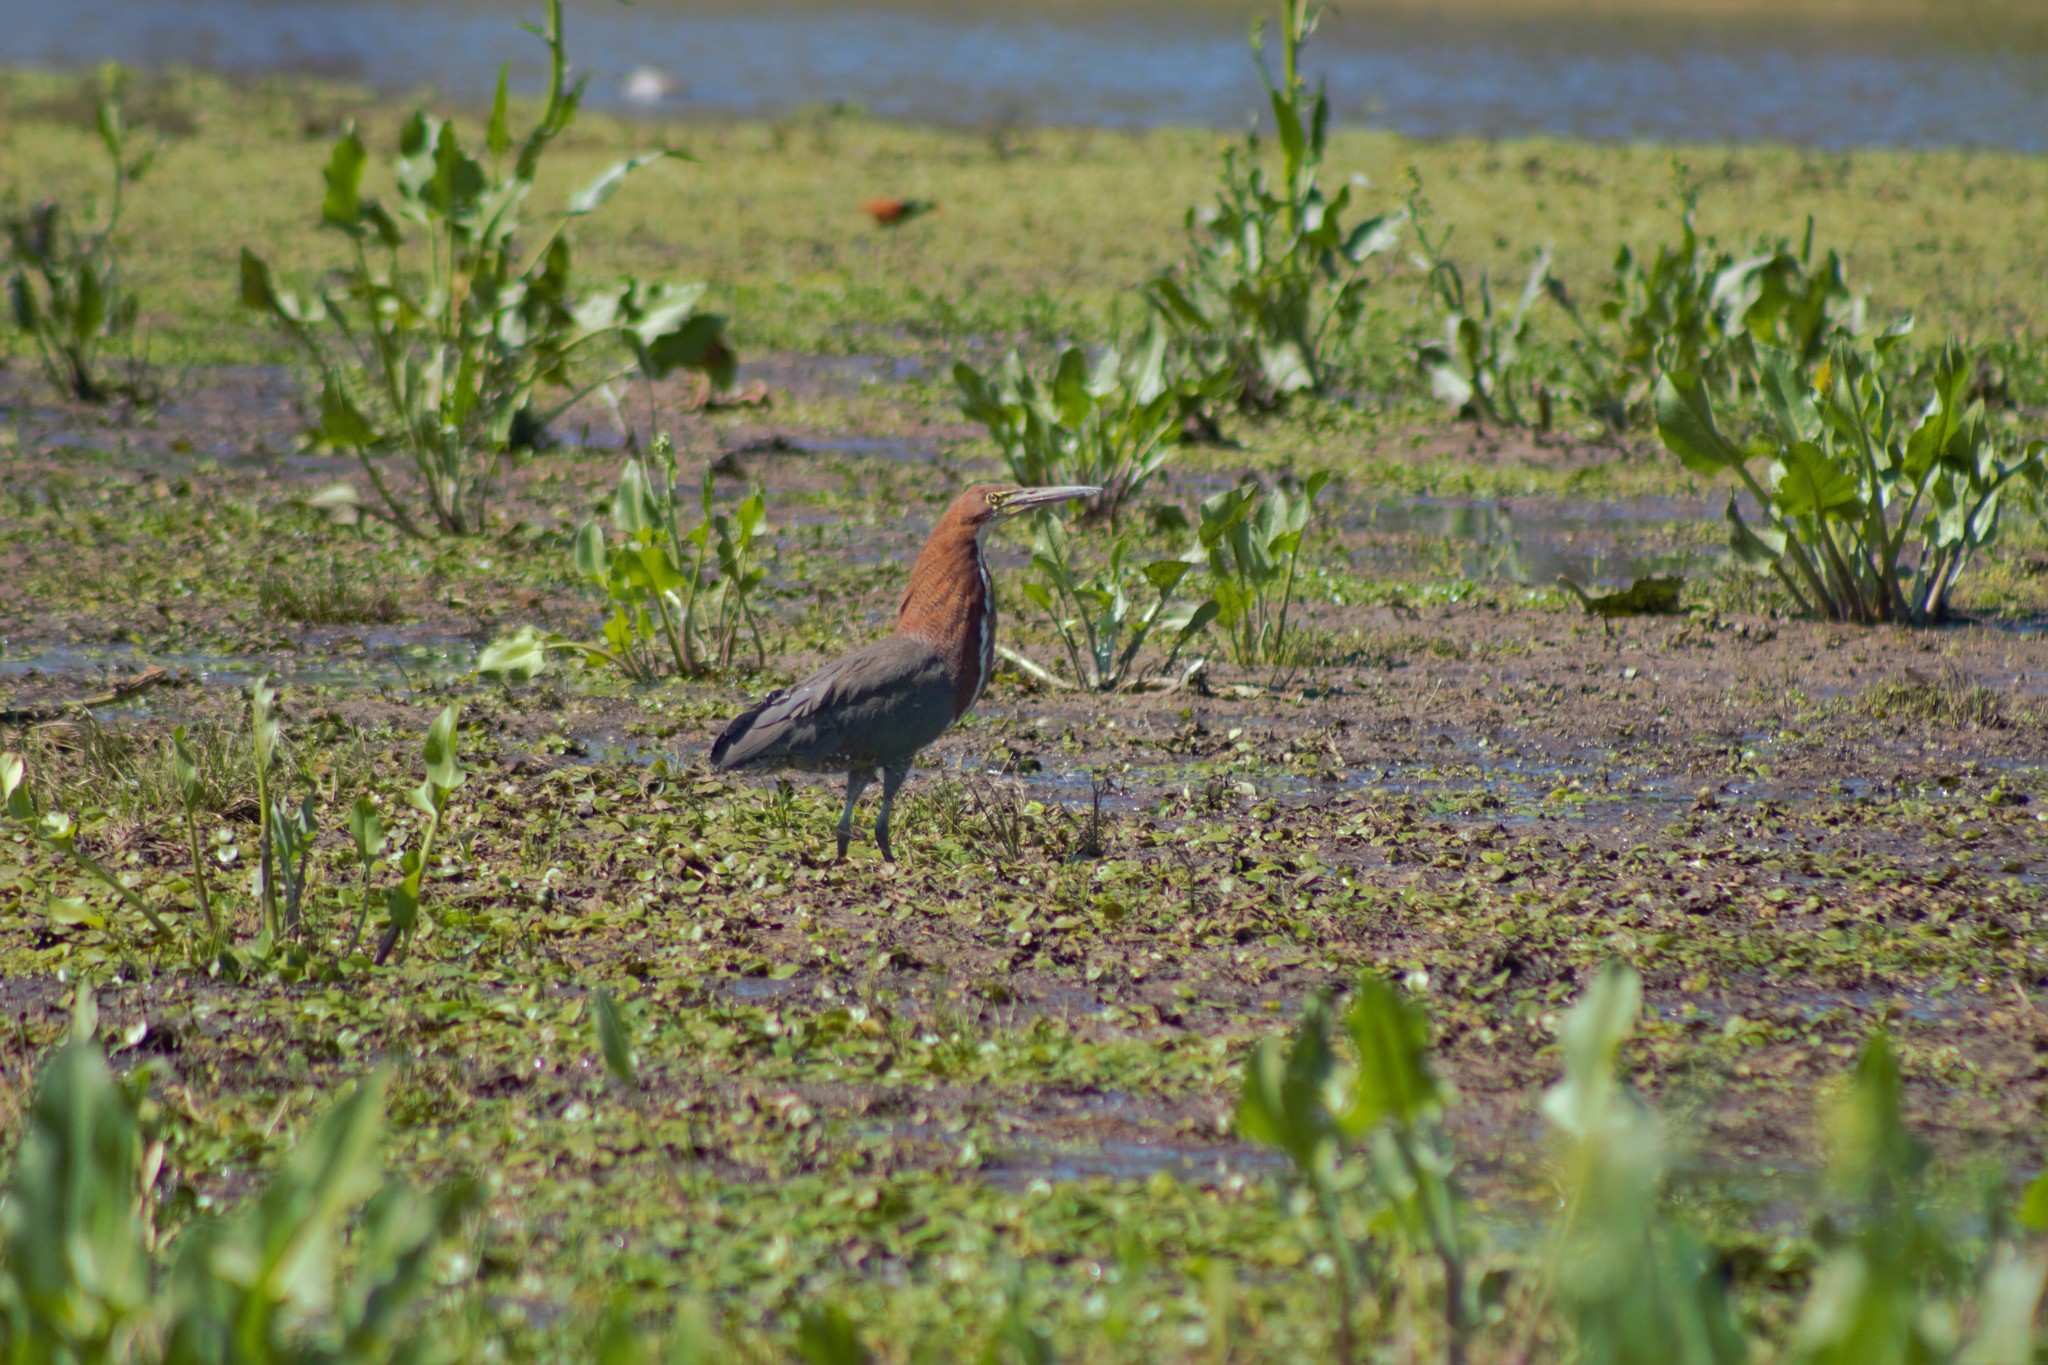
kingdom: Animalia
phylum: Chordata
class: Aves
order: Pelecaniformes
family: Ardeidae
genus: Tigrisoma
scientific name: Tigrisoma lineatum
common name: Rufescent tiger-heron
